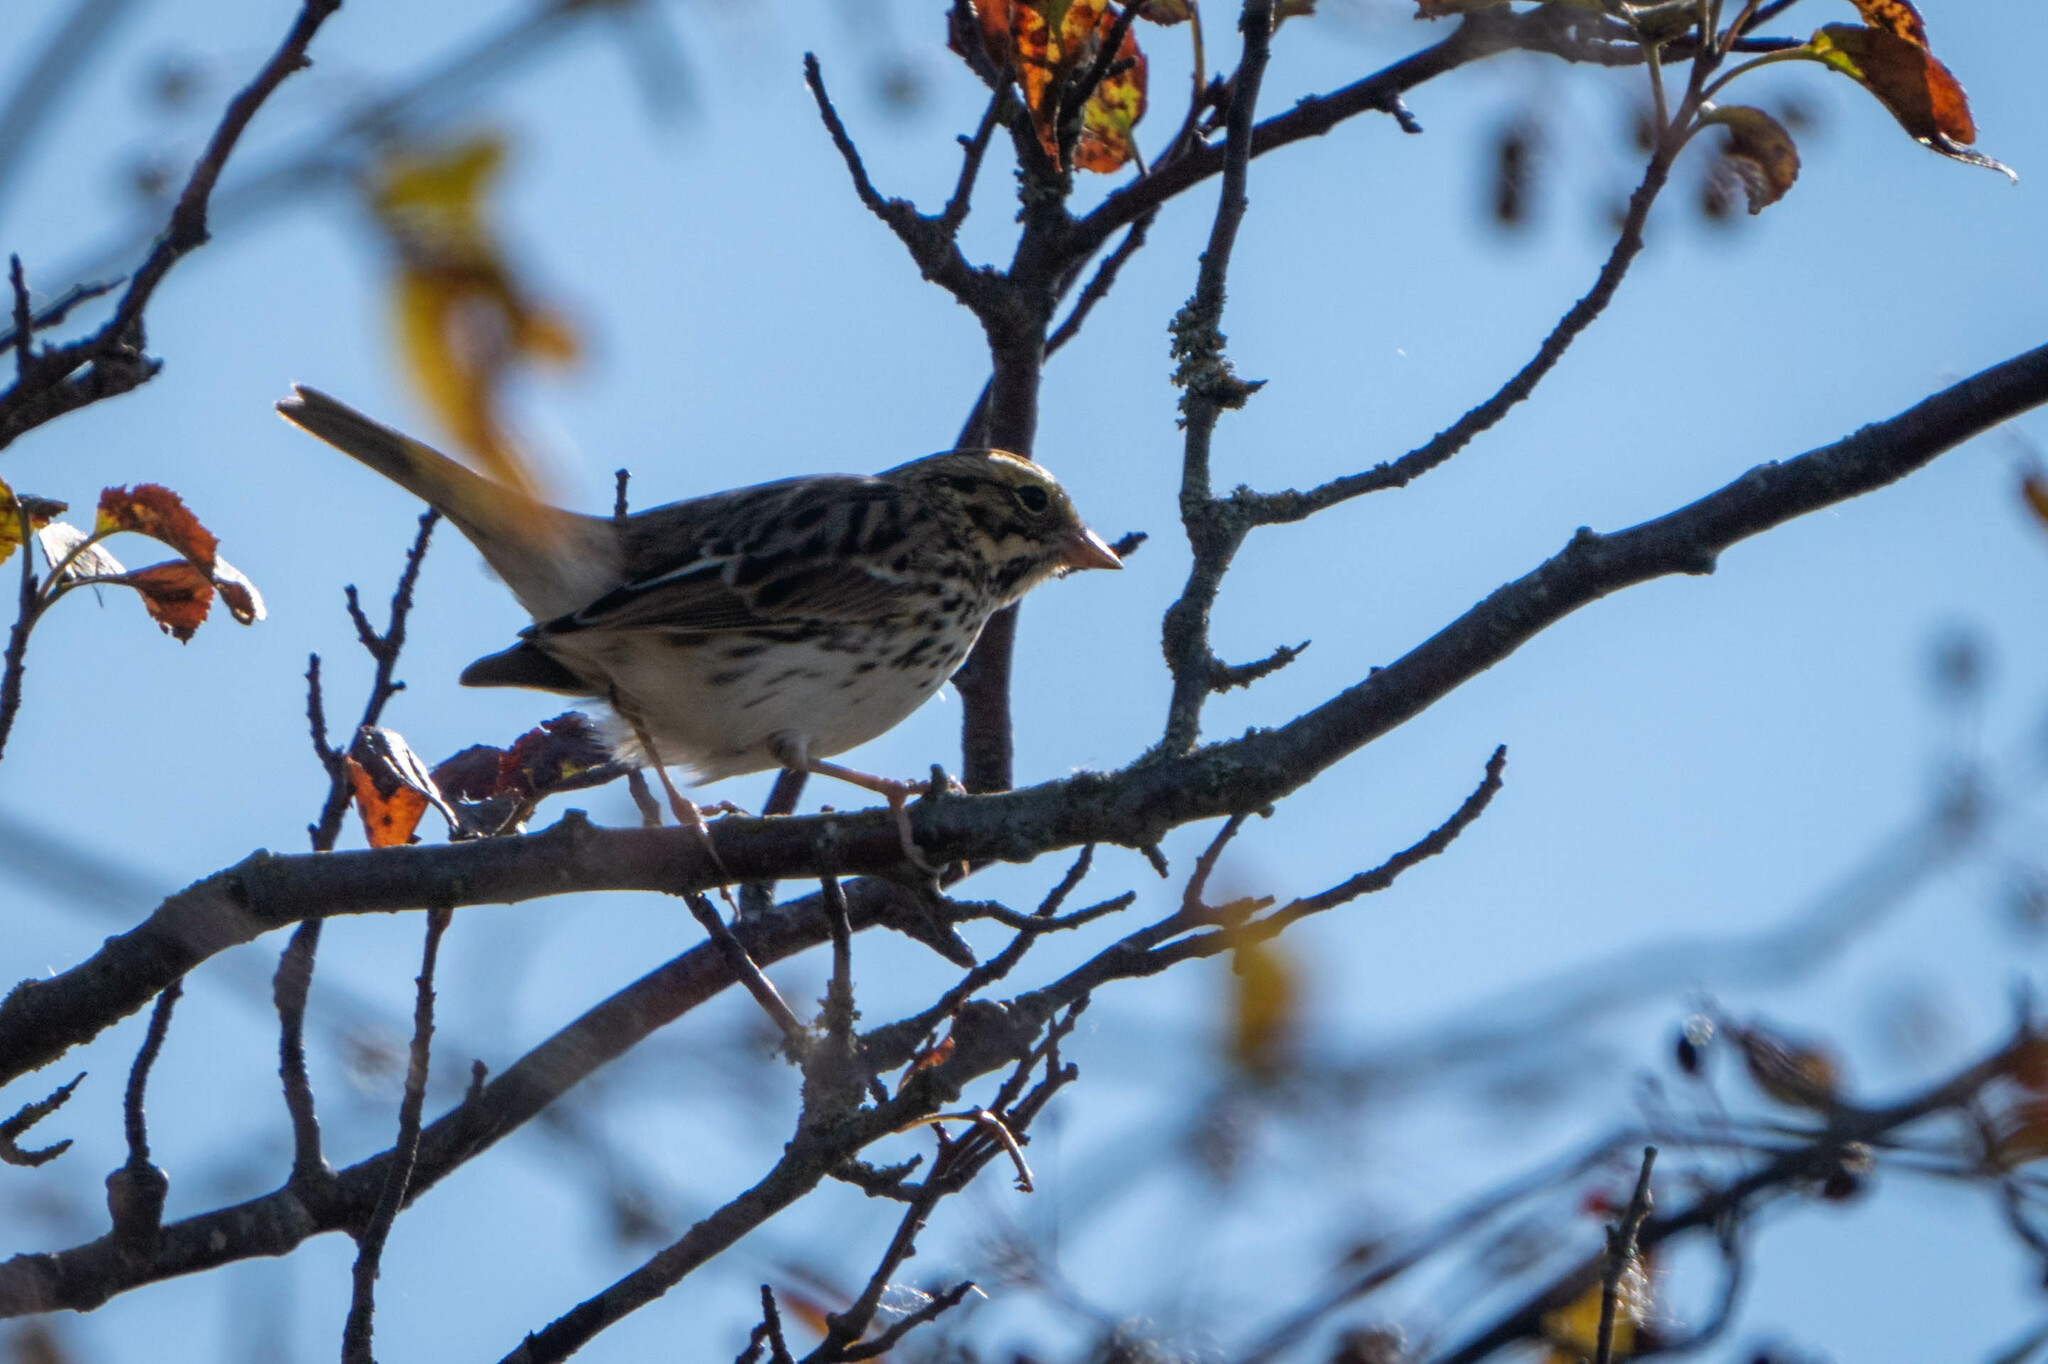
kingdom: Animalia
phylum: Chordata
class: Aves
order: Passeriformes
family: Passerellidae
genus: Passerculus
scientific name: Passerculus sandwichensis
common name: Savannah sparrow
